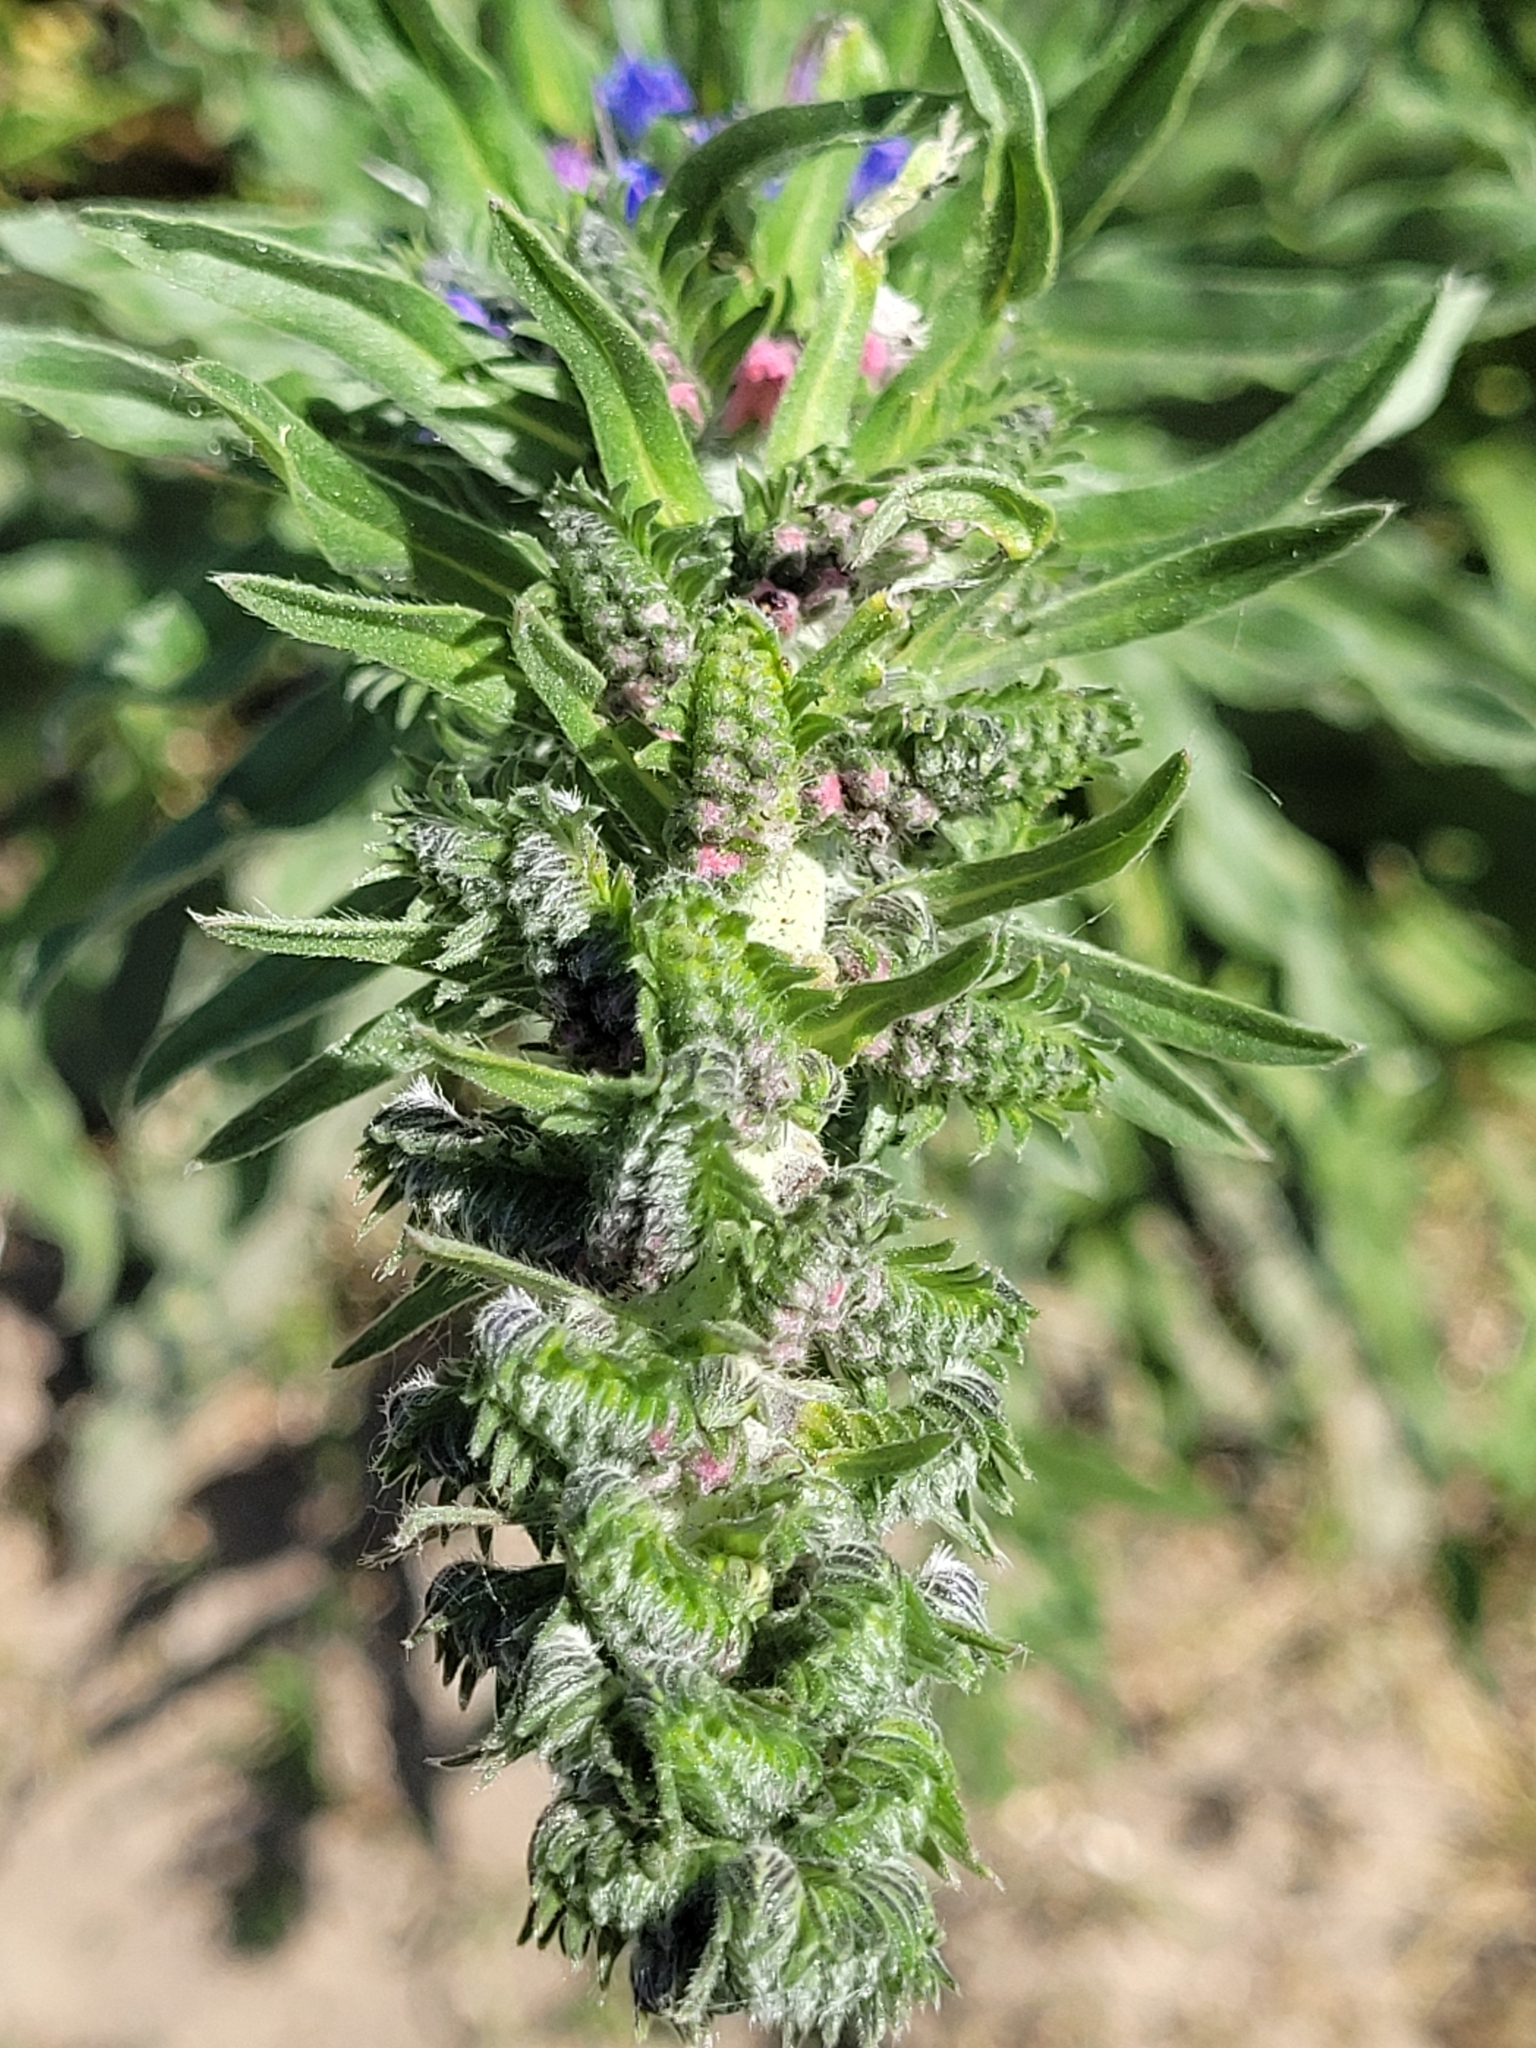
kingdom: Plantae
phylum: Tracheophyta
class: Magnoliopsida
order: Boraginales
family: Boraginaceae
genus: Echium
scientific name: Echium vulgare
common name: Common viper's bugloss
